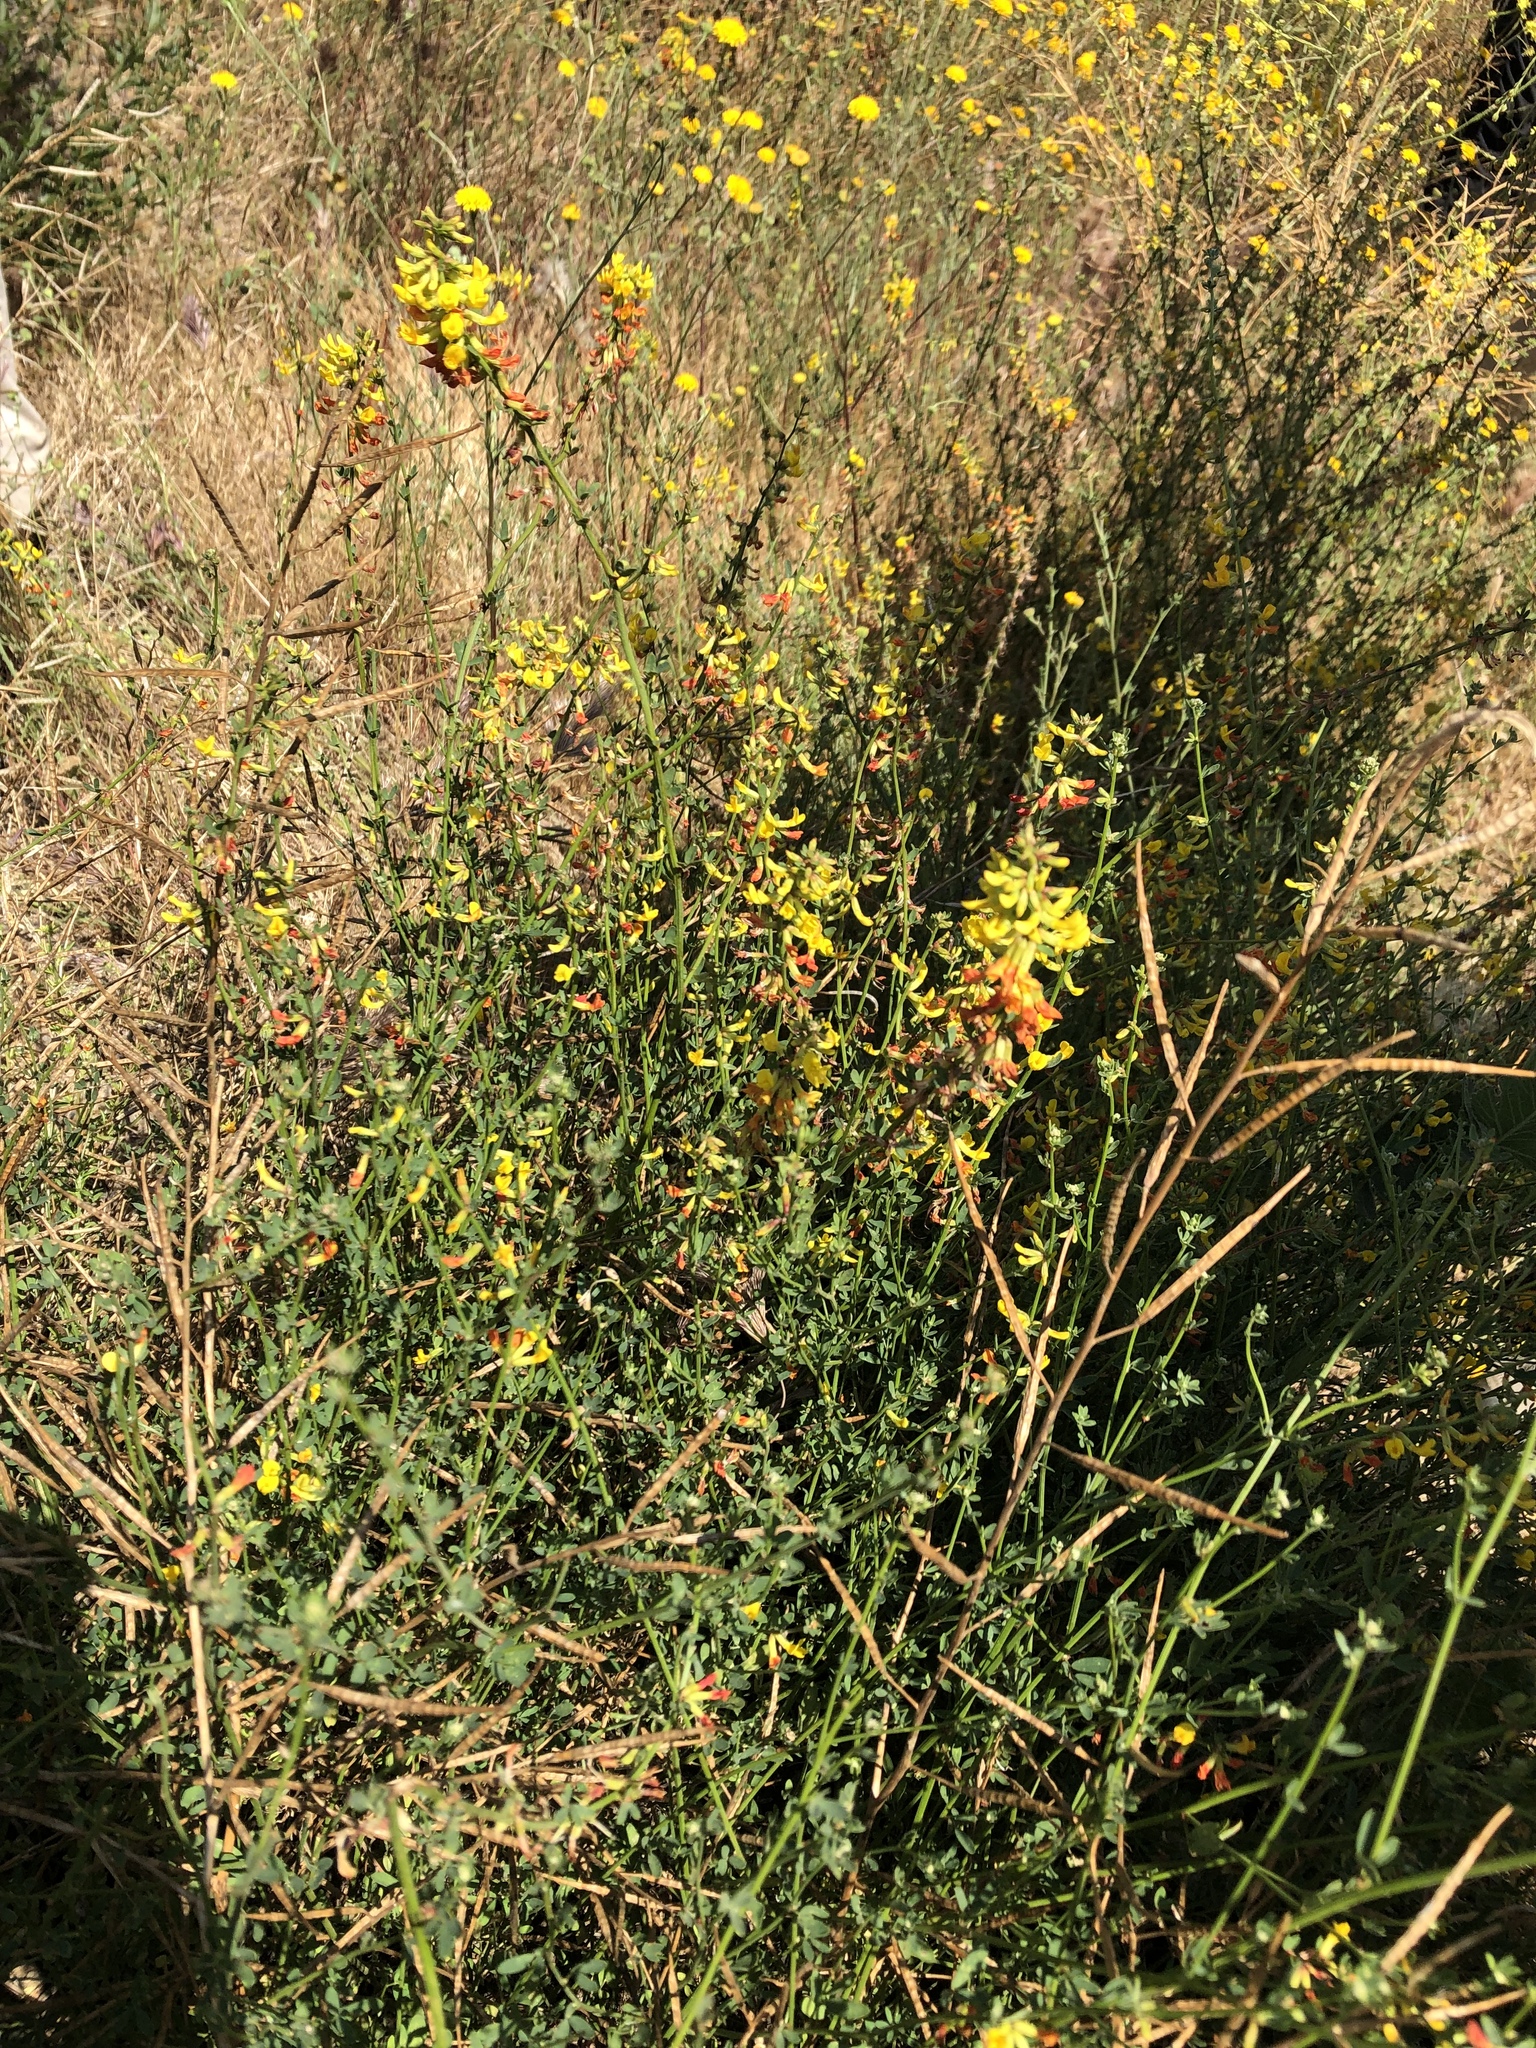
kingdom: Plantae
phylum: Tracheophyta
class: Magnoliopsida
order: Fabales
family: Fabaceae
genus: Acmispon
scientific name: Acmispon glaber
